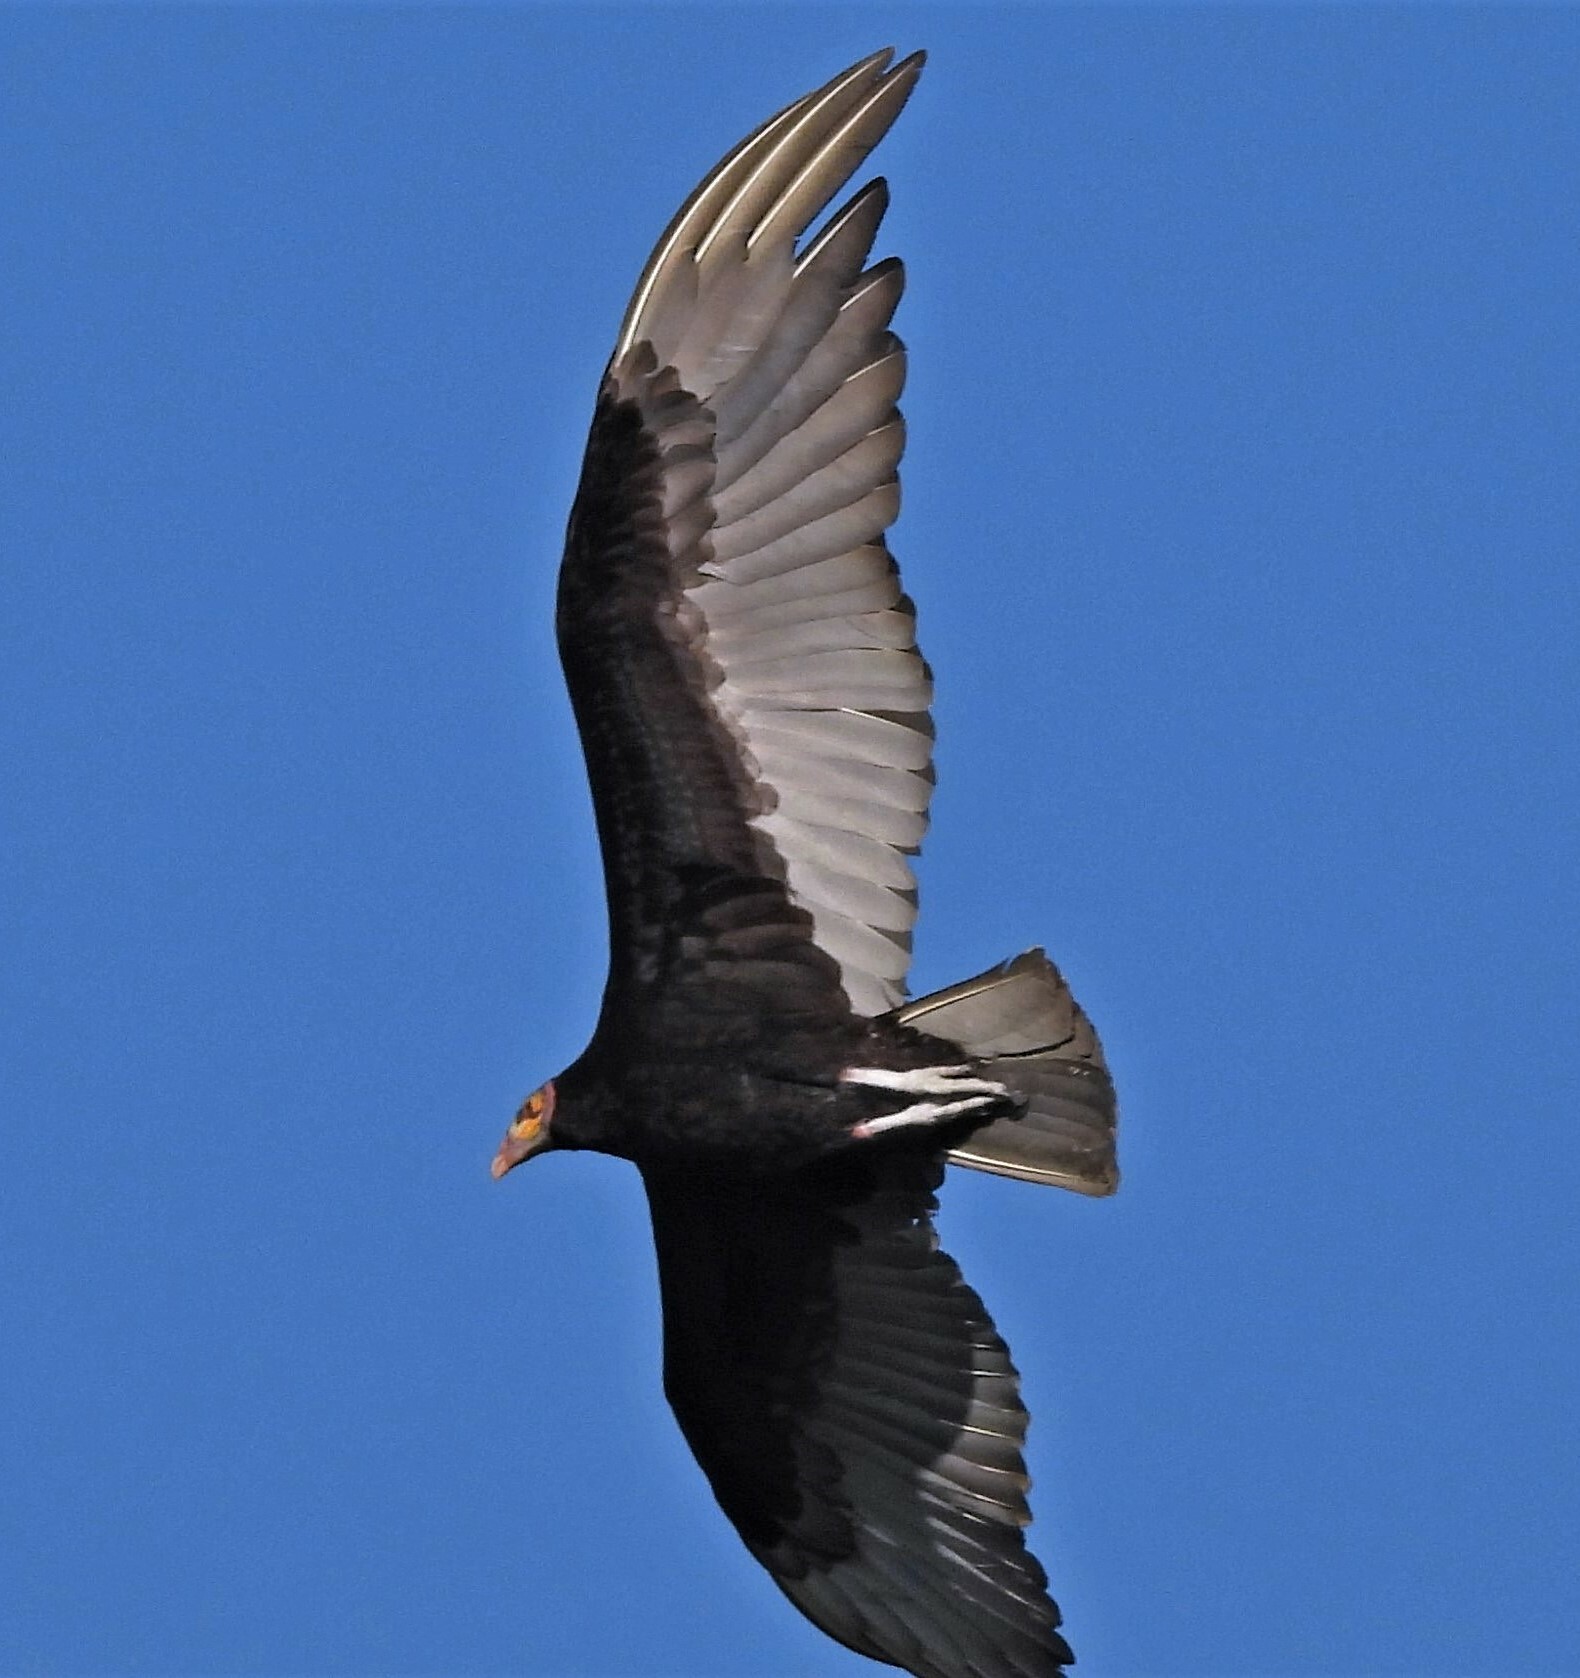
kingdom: Animalia
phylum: Chordata
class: Aves
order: Accipitriformes
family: Cathartidae
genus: Cathartes
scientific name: Cathartes burrovianus
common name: Lesser yellow-headed vulture
